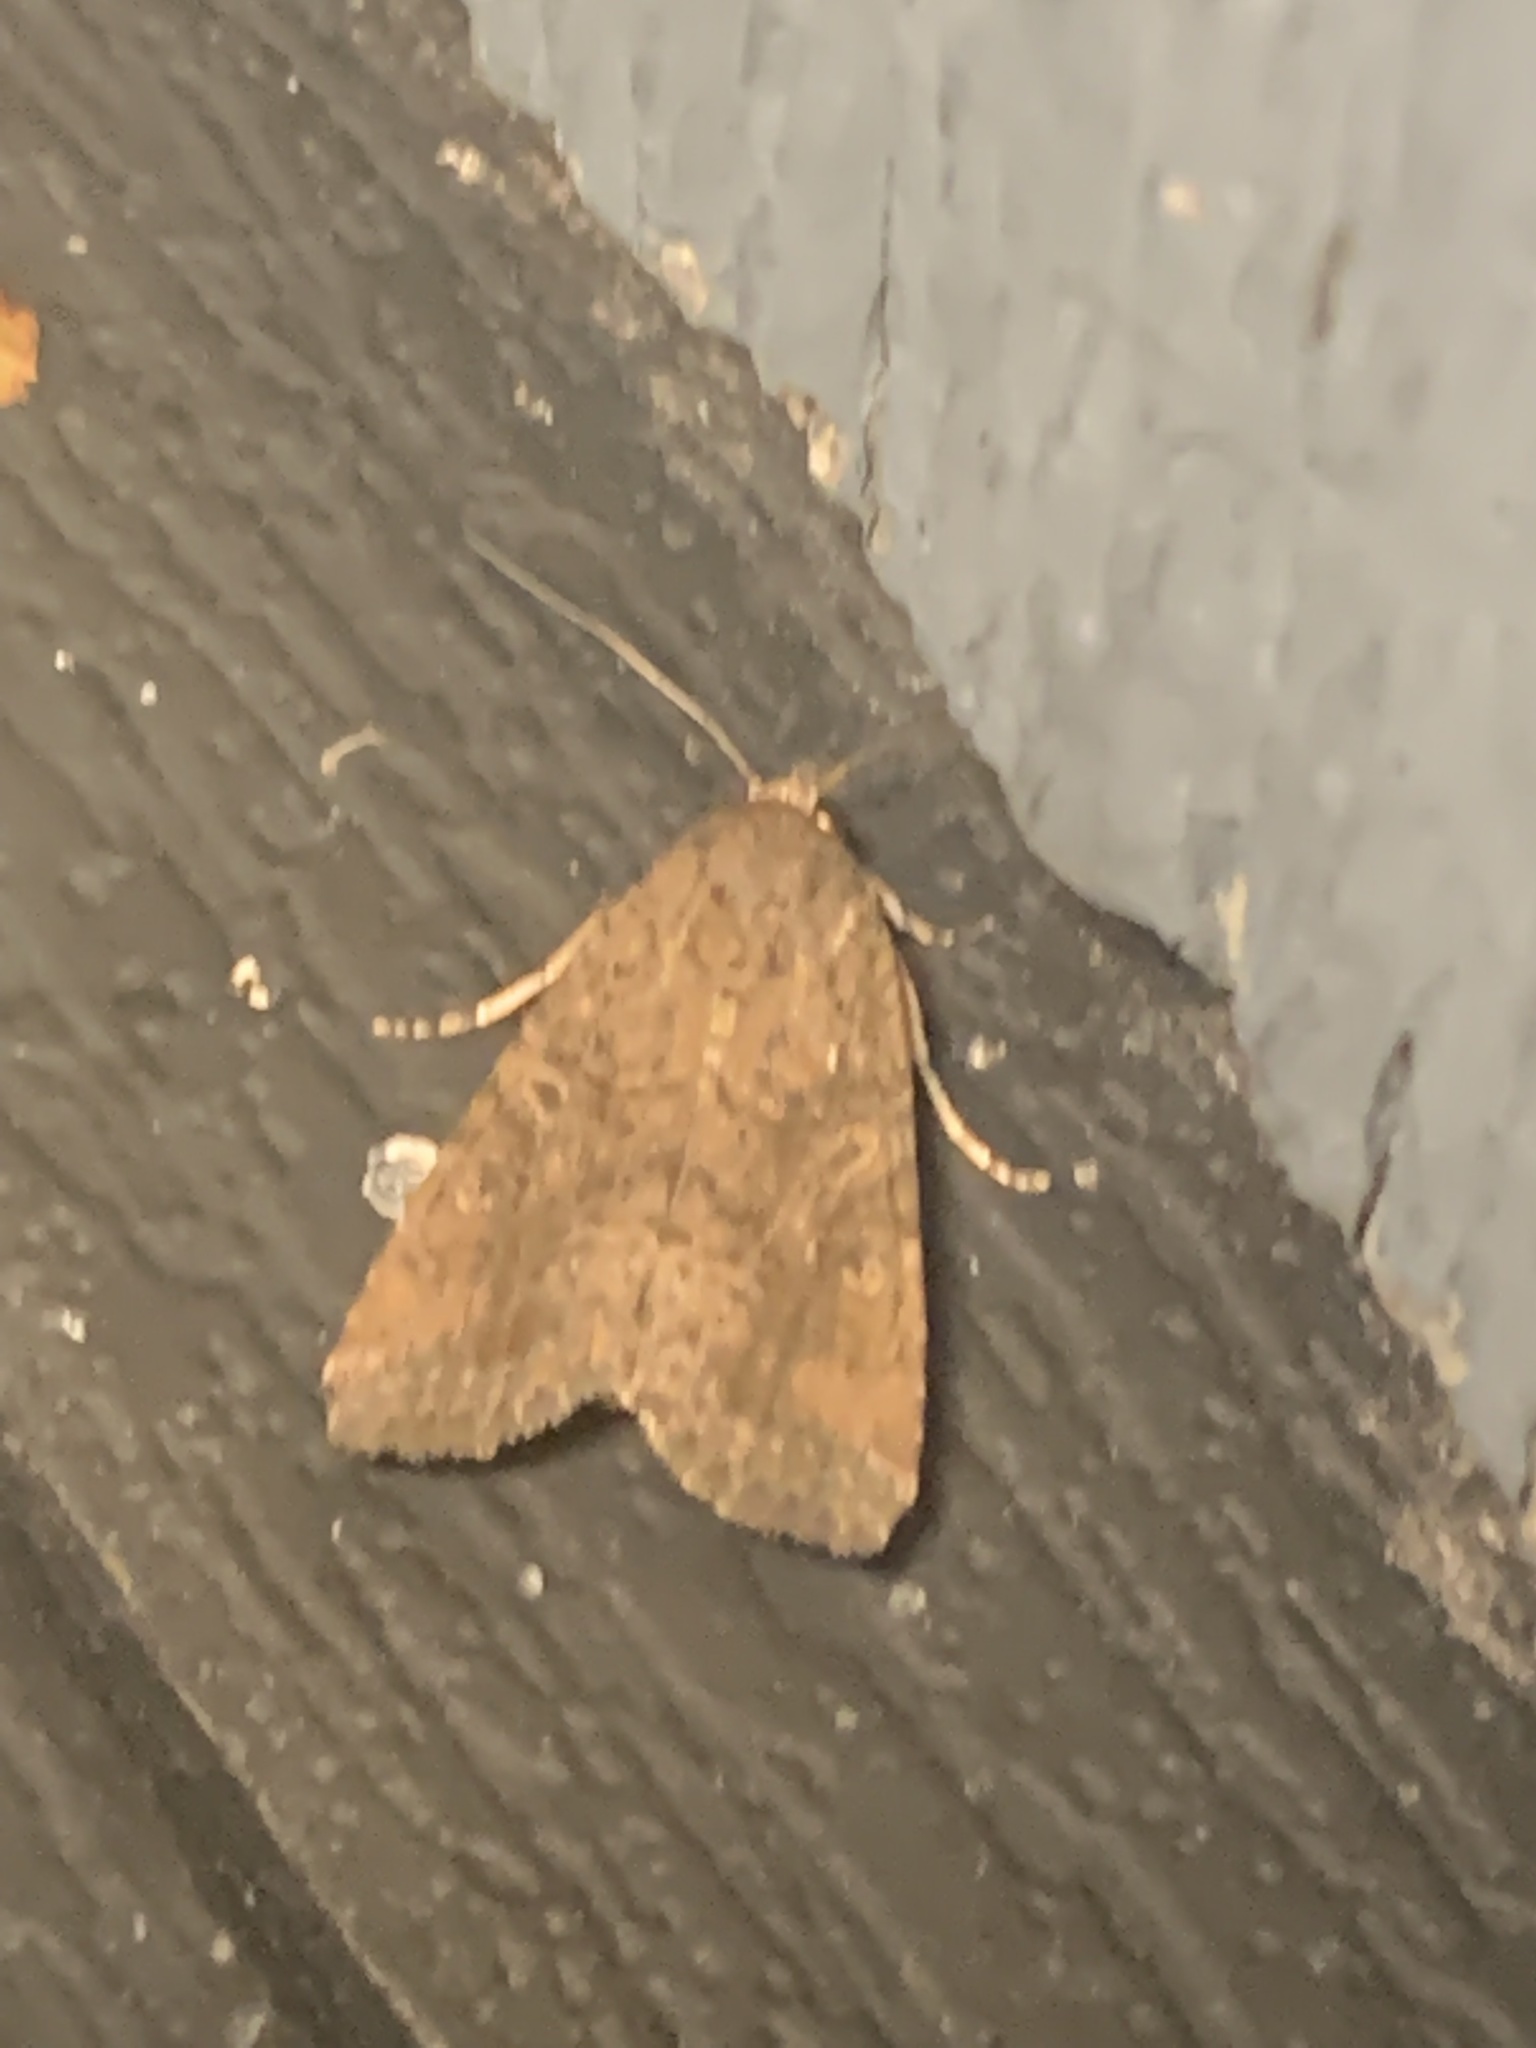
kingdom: Animalia
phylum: Arthropoda
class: Insecta
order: Lepidoptera
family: Noctuidae
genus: Condica
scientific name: Condica sutor
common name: Cobbler moth
